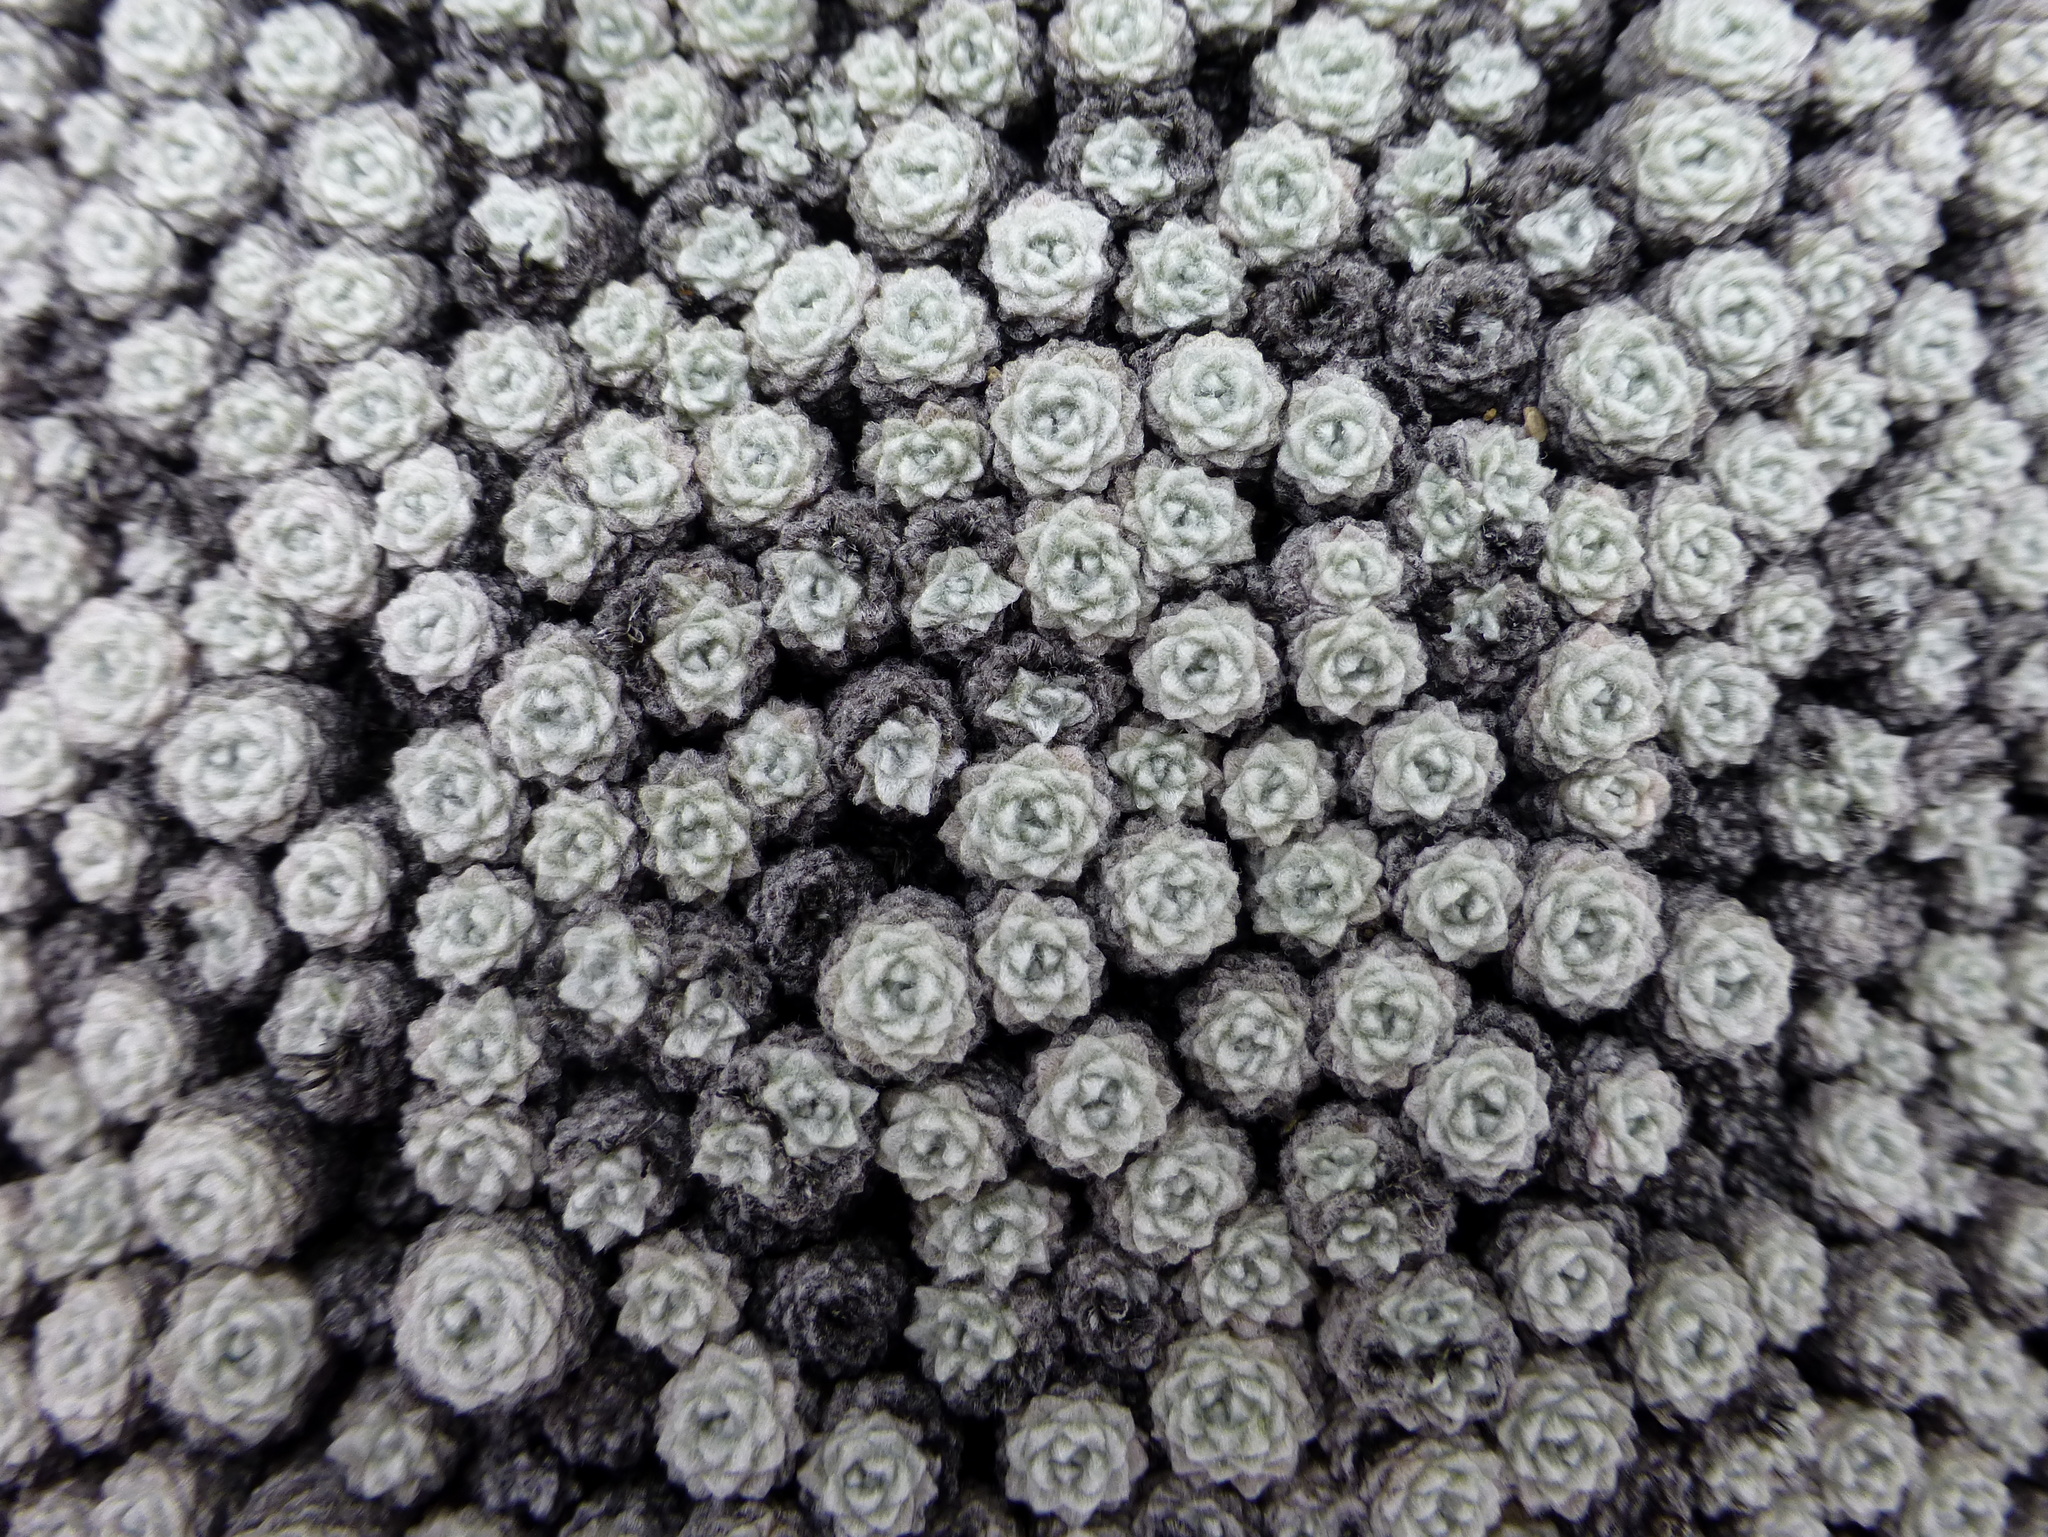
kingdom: Plantae
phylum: Tracheophyta
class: Magnoliopsida
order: Asterales
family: Asteraceae
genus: Raoulia
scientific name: Raoulia bryoides
